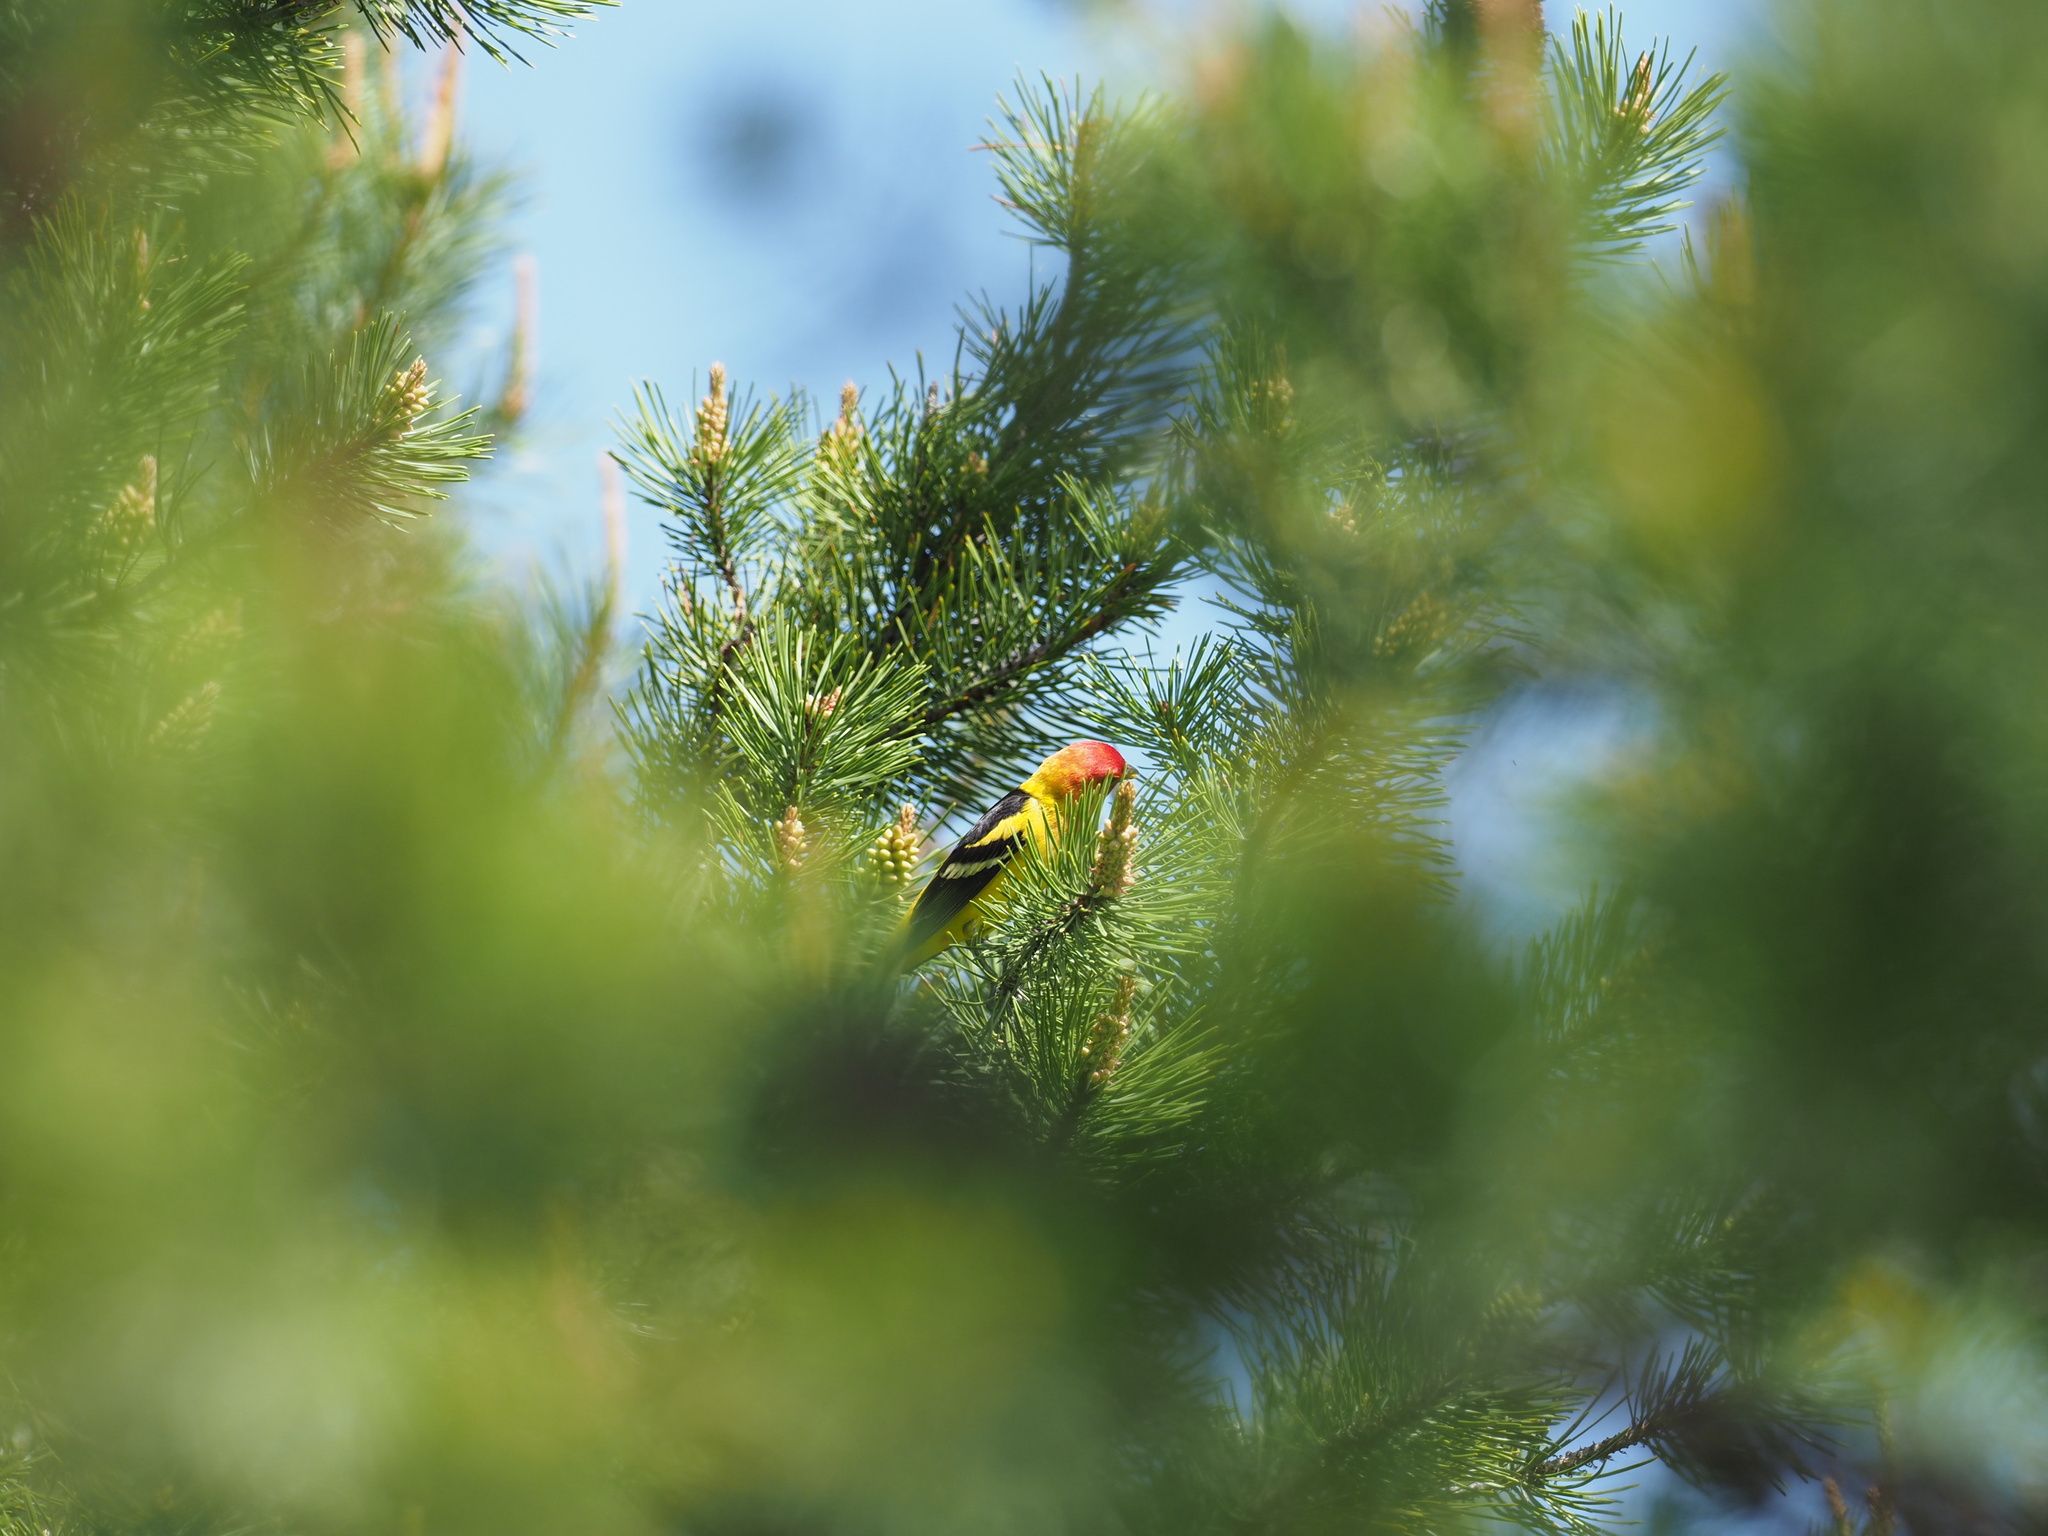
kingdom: Animalia
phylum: Chordata
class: Aves
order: Passeriformes
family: Cardinalidae
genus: Piranga
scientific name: Piranga ludoviciana
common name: Western tanager
